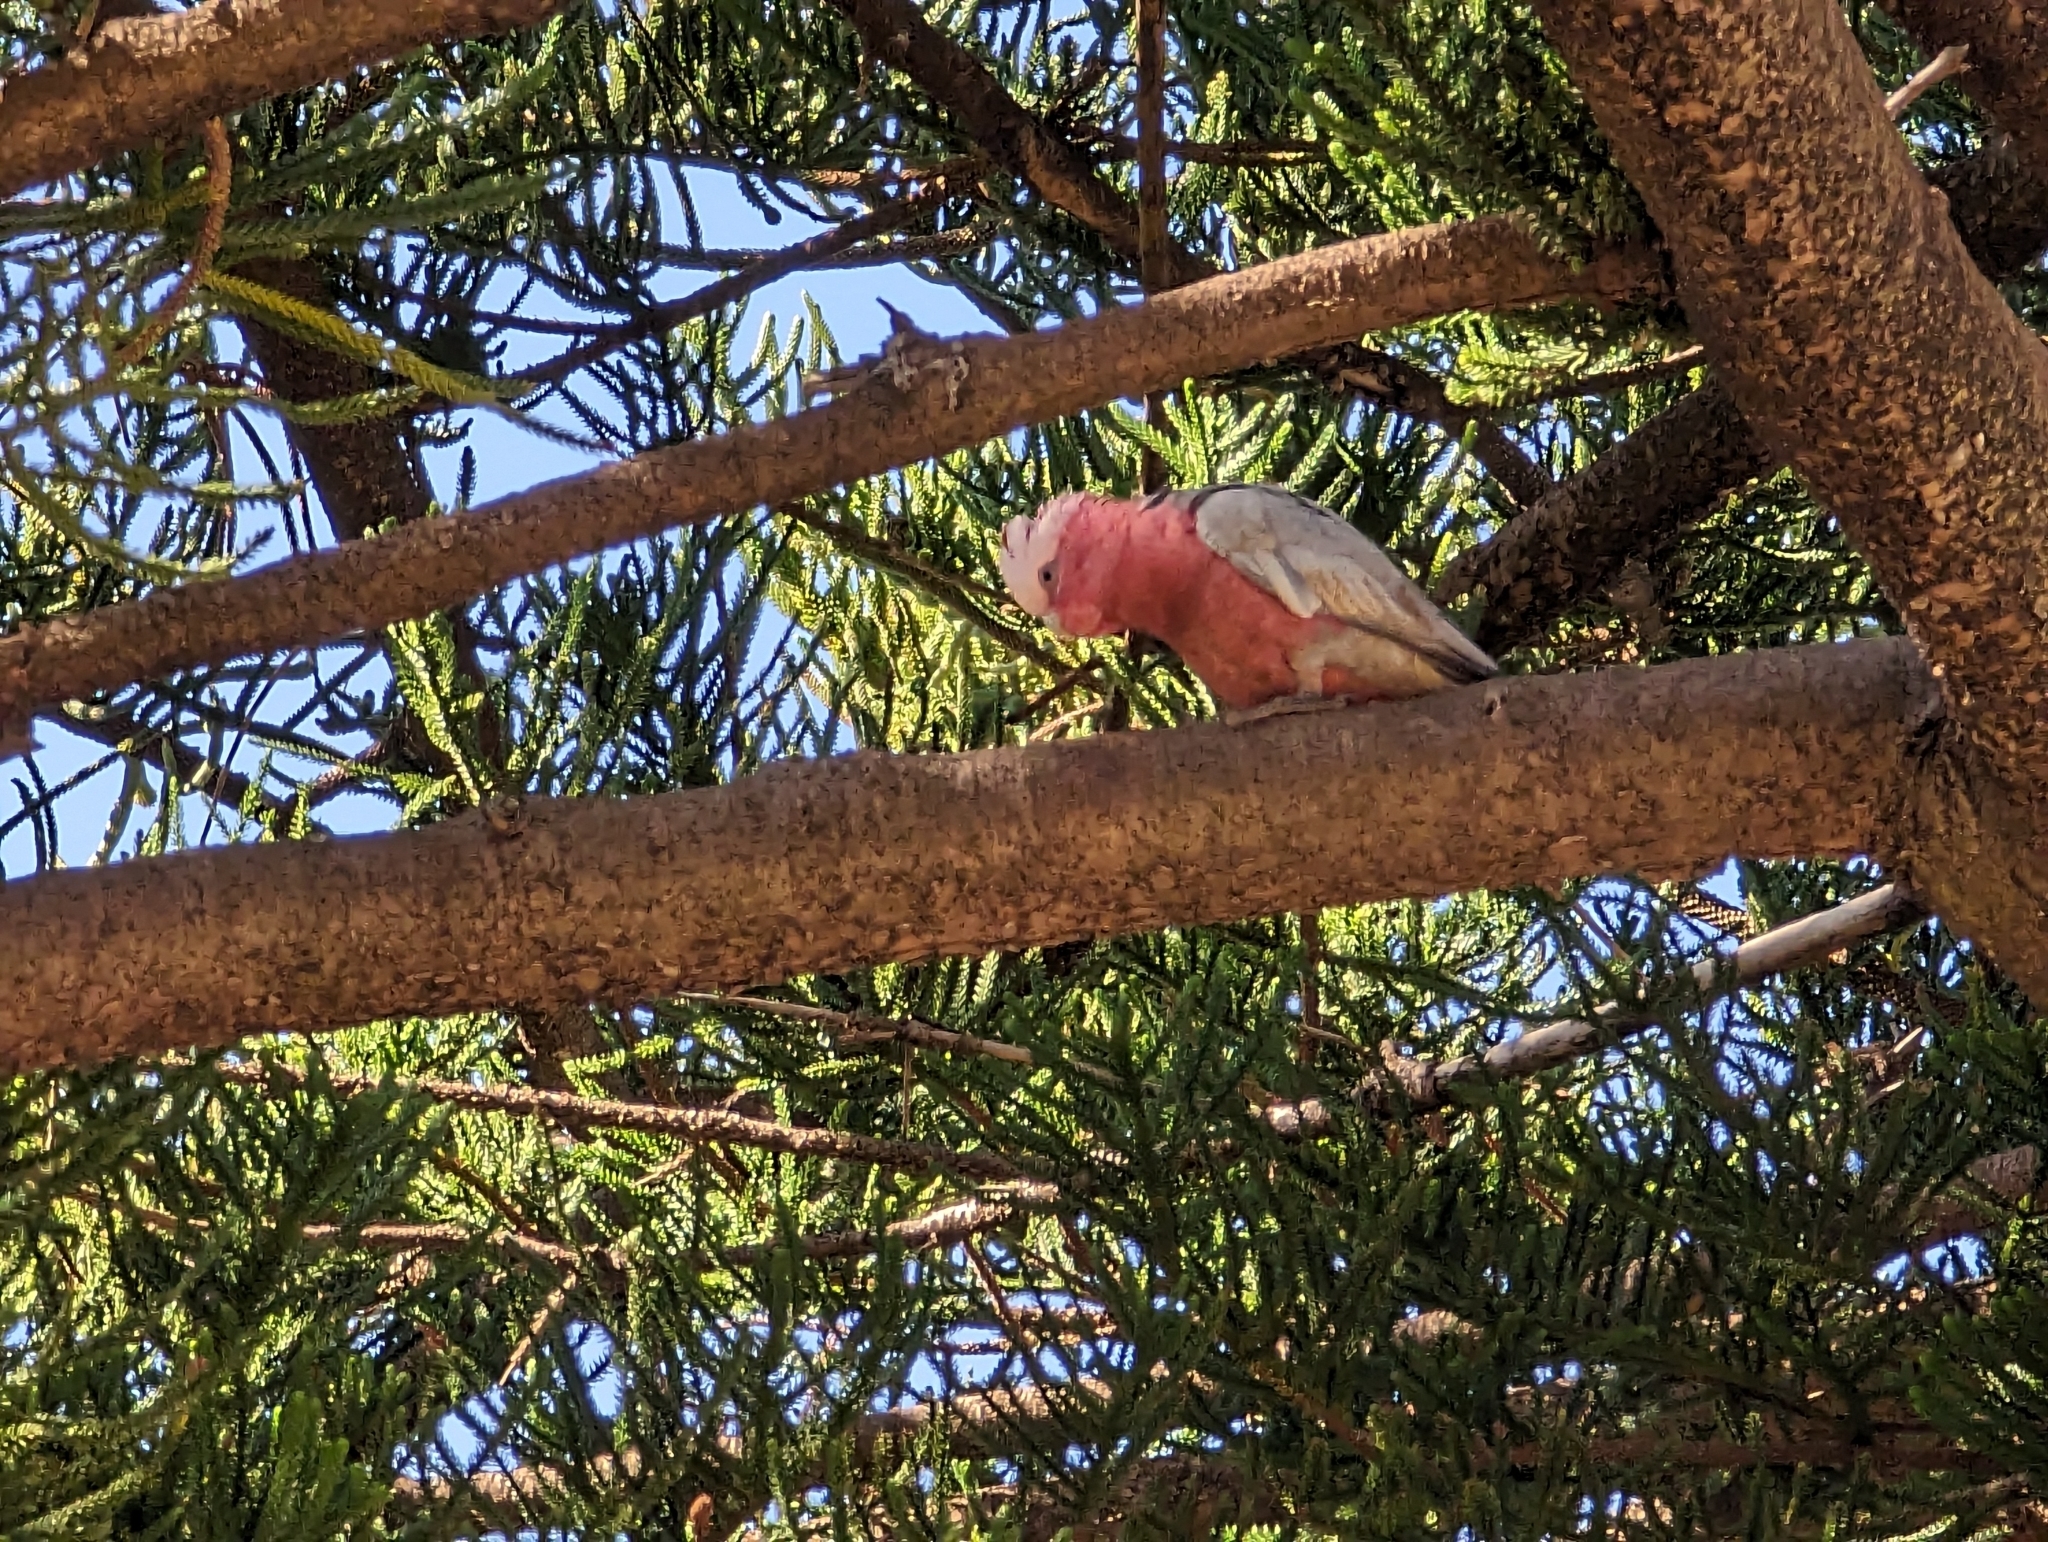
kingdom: Animalia
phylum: Chordata
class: Aves
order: Psittaciformes
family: Psittacidae
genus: Eolophus
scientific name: Eolophus roseicapilla
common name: Galah
